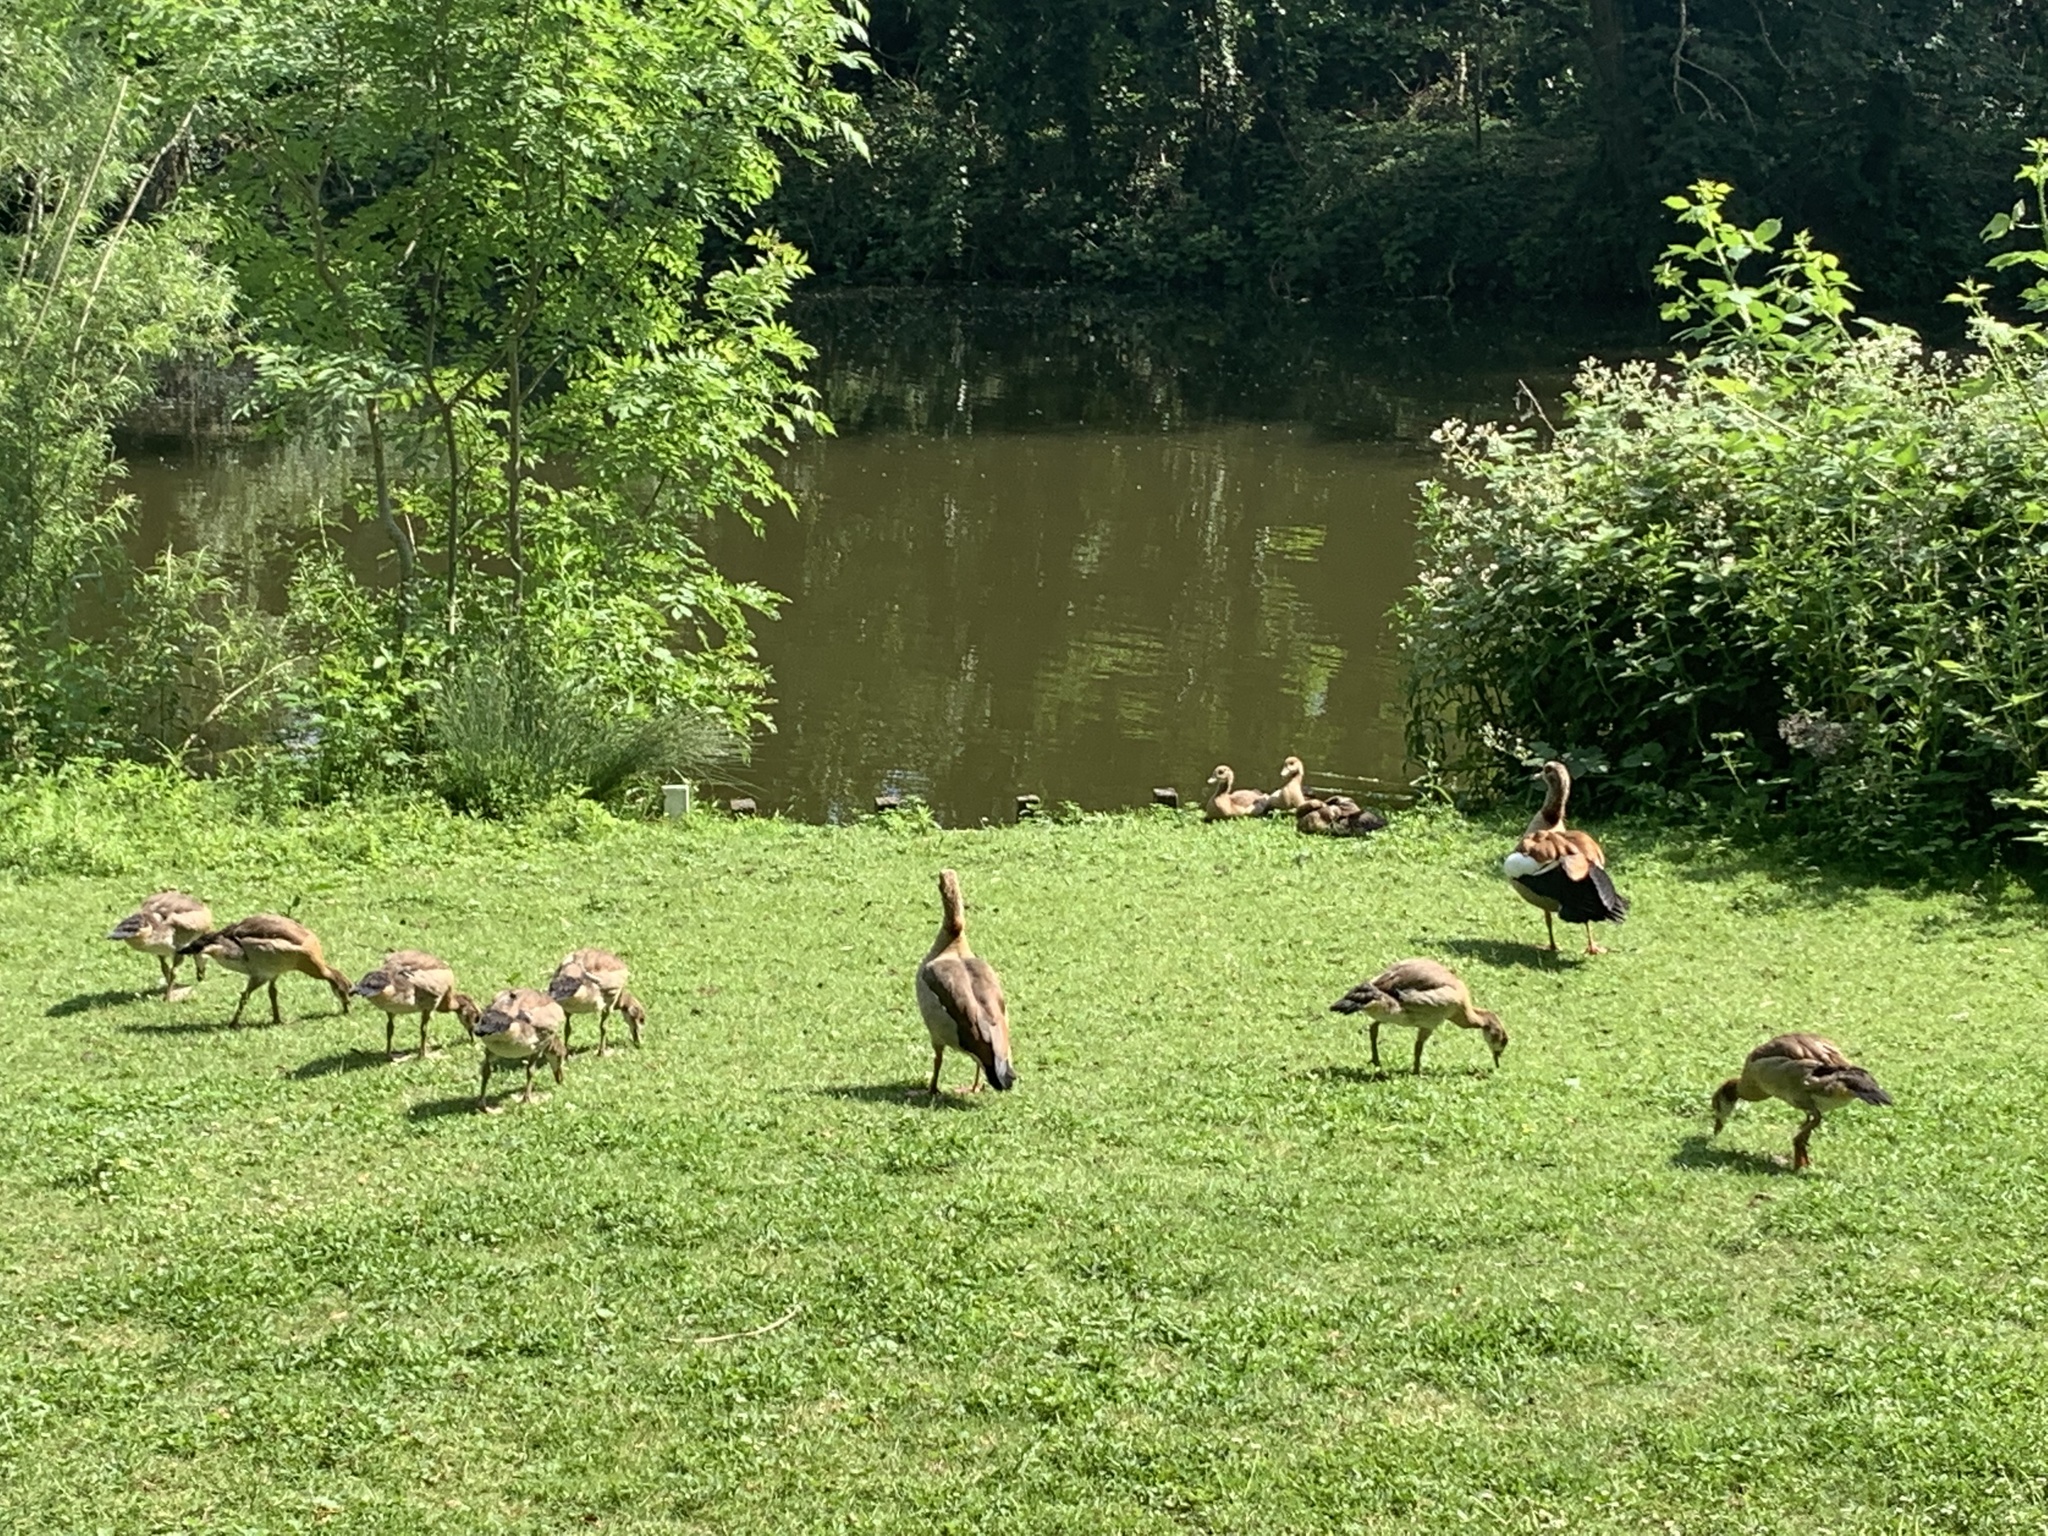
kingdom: Animalia
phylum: Chordata
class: Aves
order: Anseriformes
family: Anatidae
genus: Alopochen
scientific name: Alopochen aegyptiaca
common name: Egyptian goose
